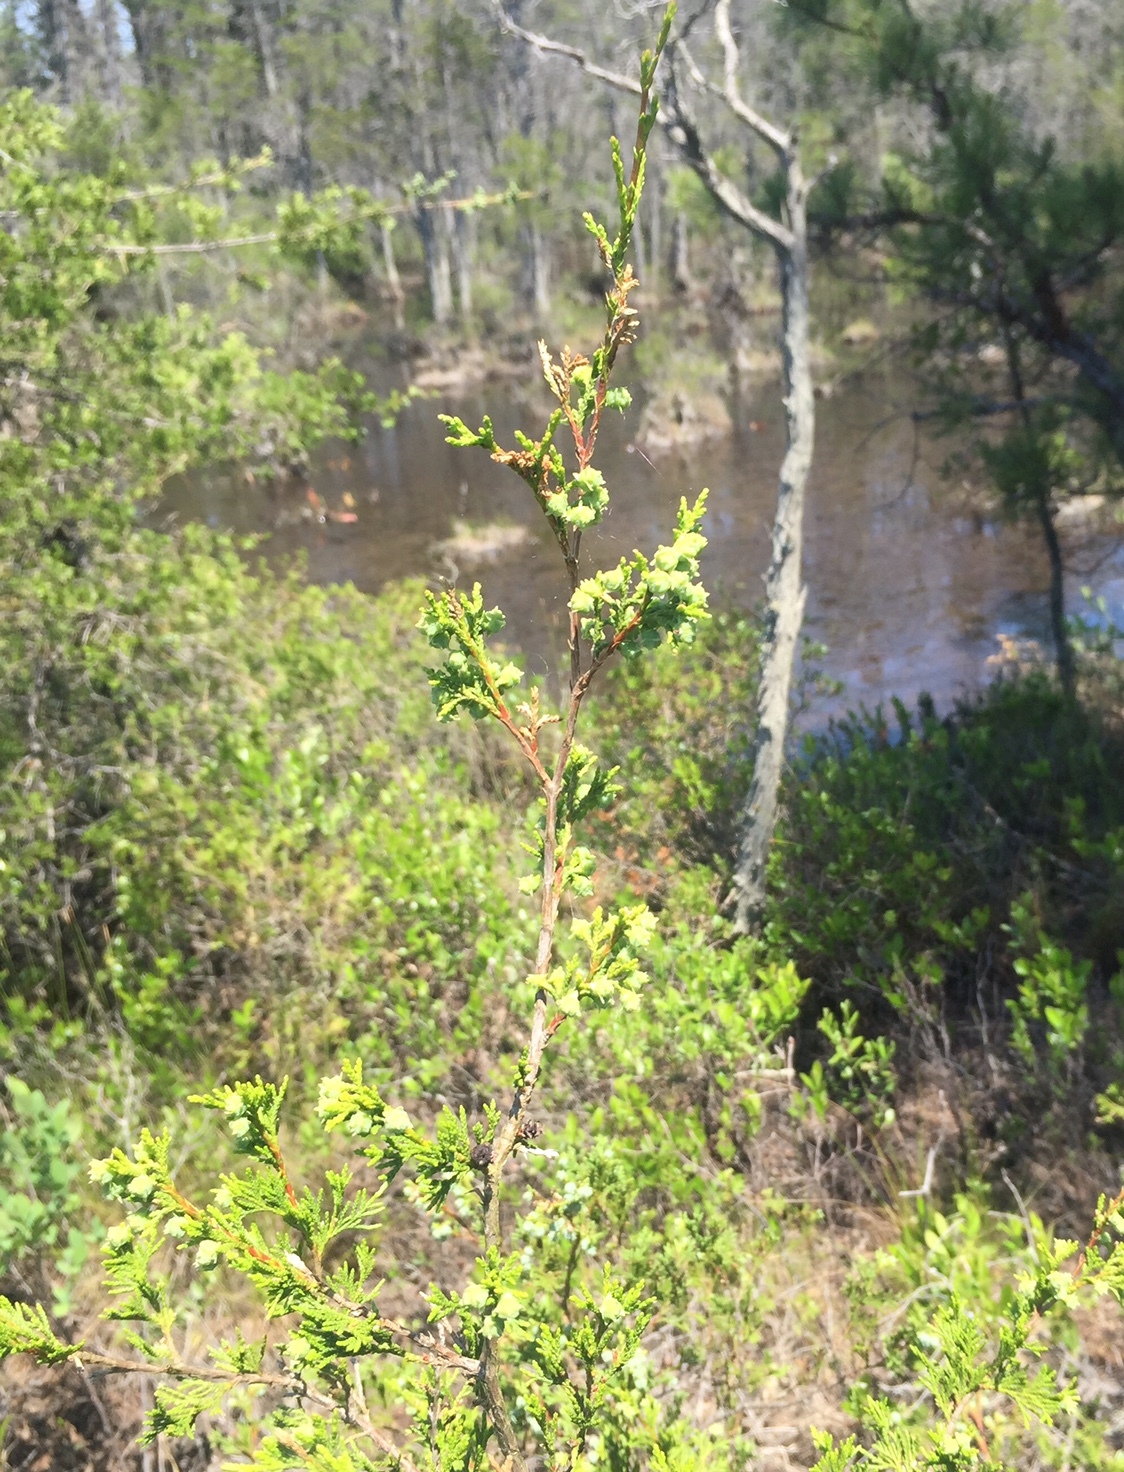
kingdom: Plantae
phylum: Tracheophyta
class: Pinopsida
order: Pinales
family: Cupressaceae
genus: Chamaecyparis
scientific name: Chamaecyparis thyoides
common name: Atlantic white cedar
